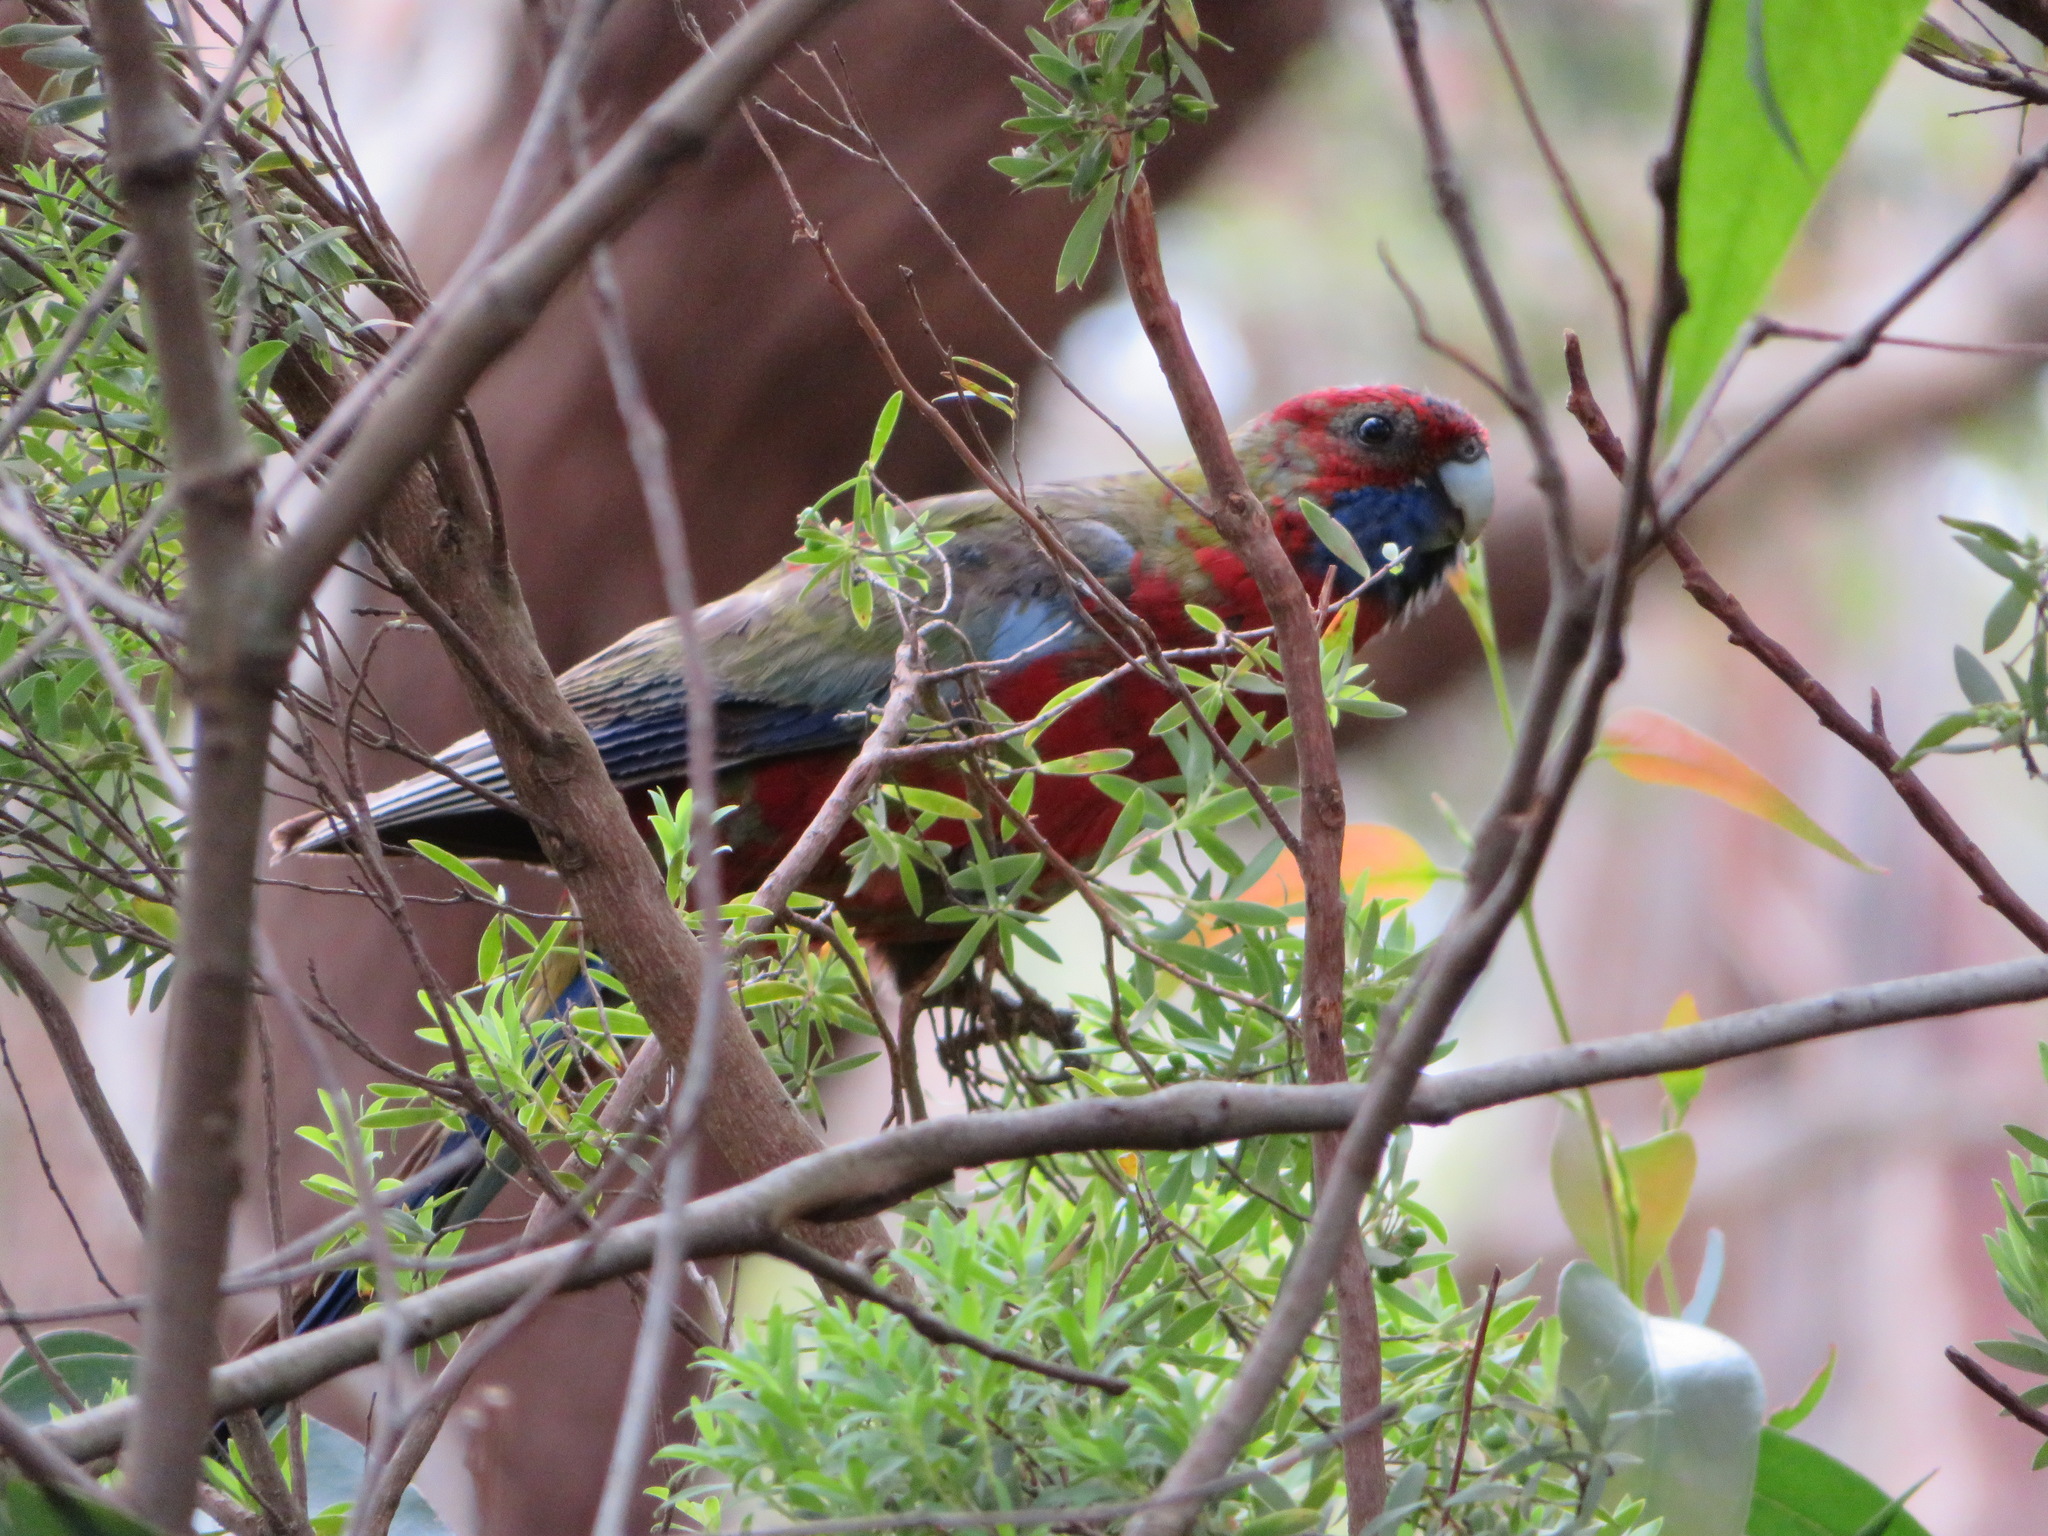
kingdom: Animalia
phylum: Chordata
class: Aves
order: Psittaciformes
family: Psittacidae
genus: Platycercus
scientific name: Platycercus elegans
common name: Crimson rosella
